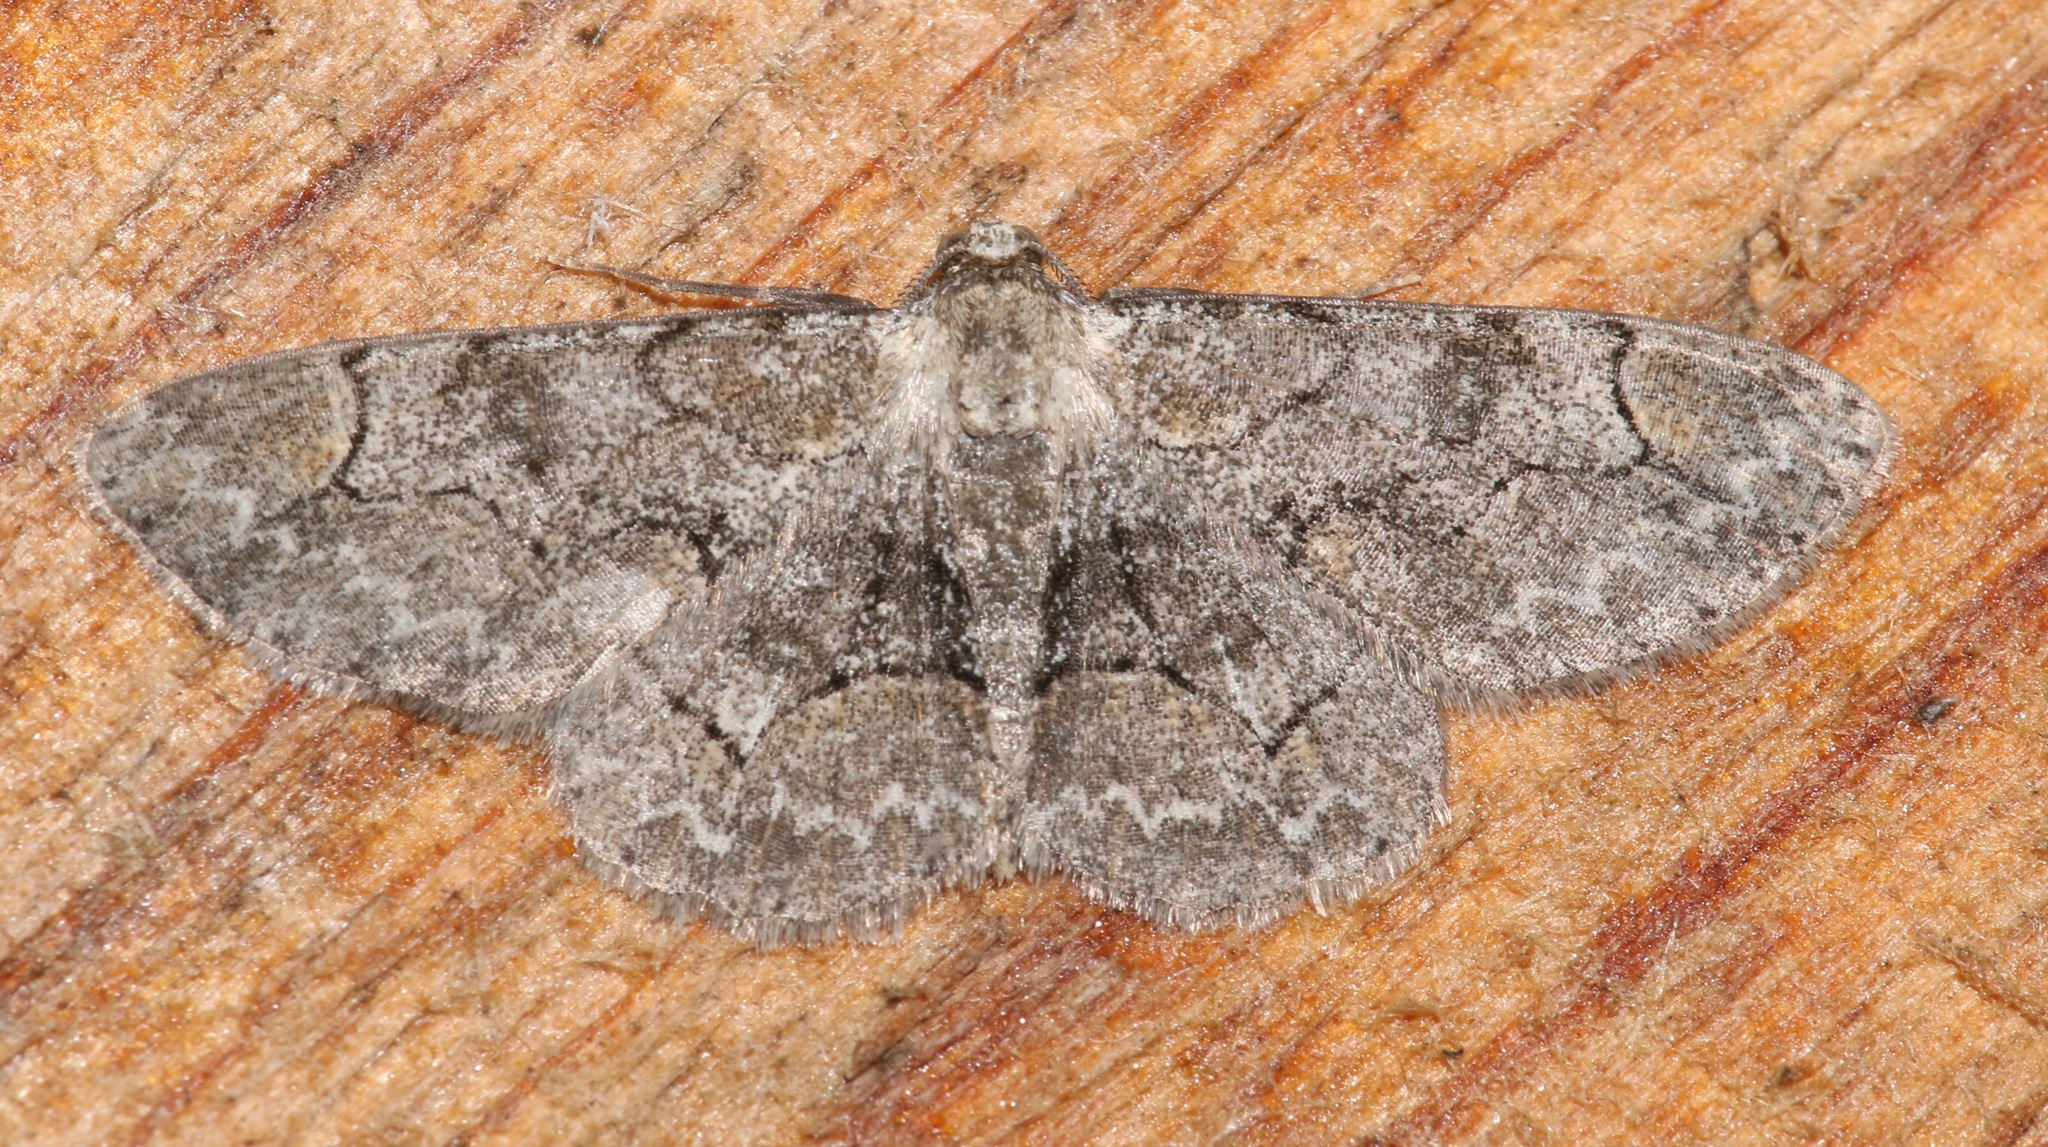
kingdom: Animalia
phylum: Arthropoda
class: Insecta
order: Lepidoptera
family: Geometridae
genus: Iridopsis
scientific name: Iridopsis larvaria
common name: Bent-line gray
